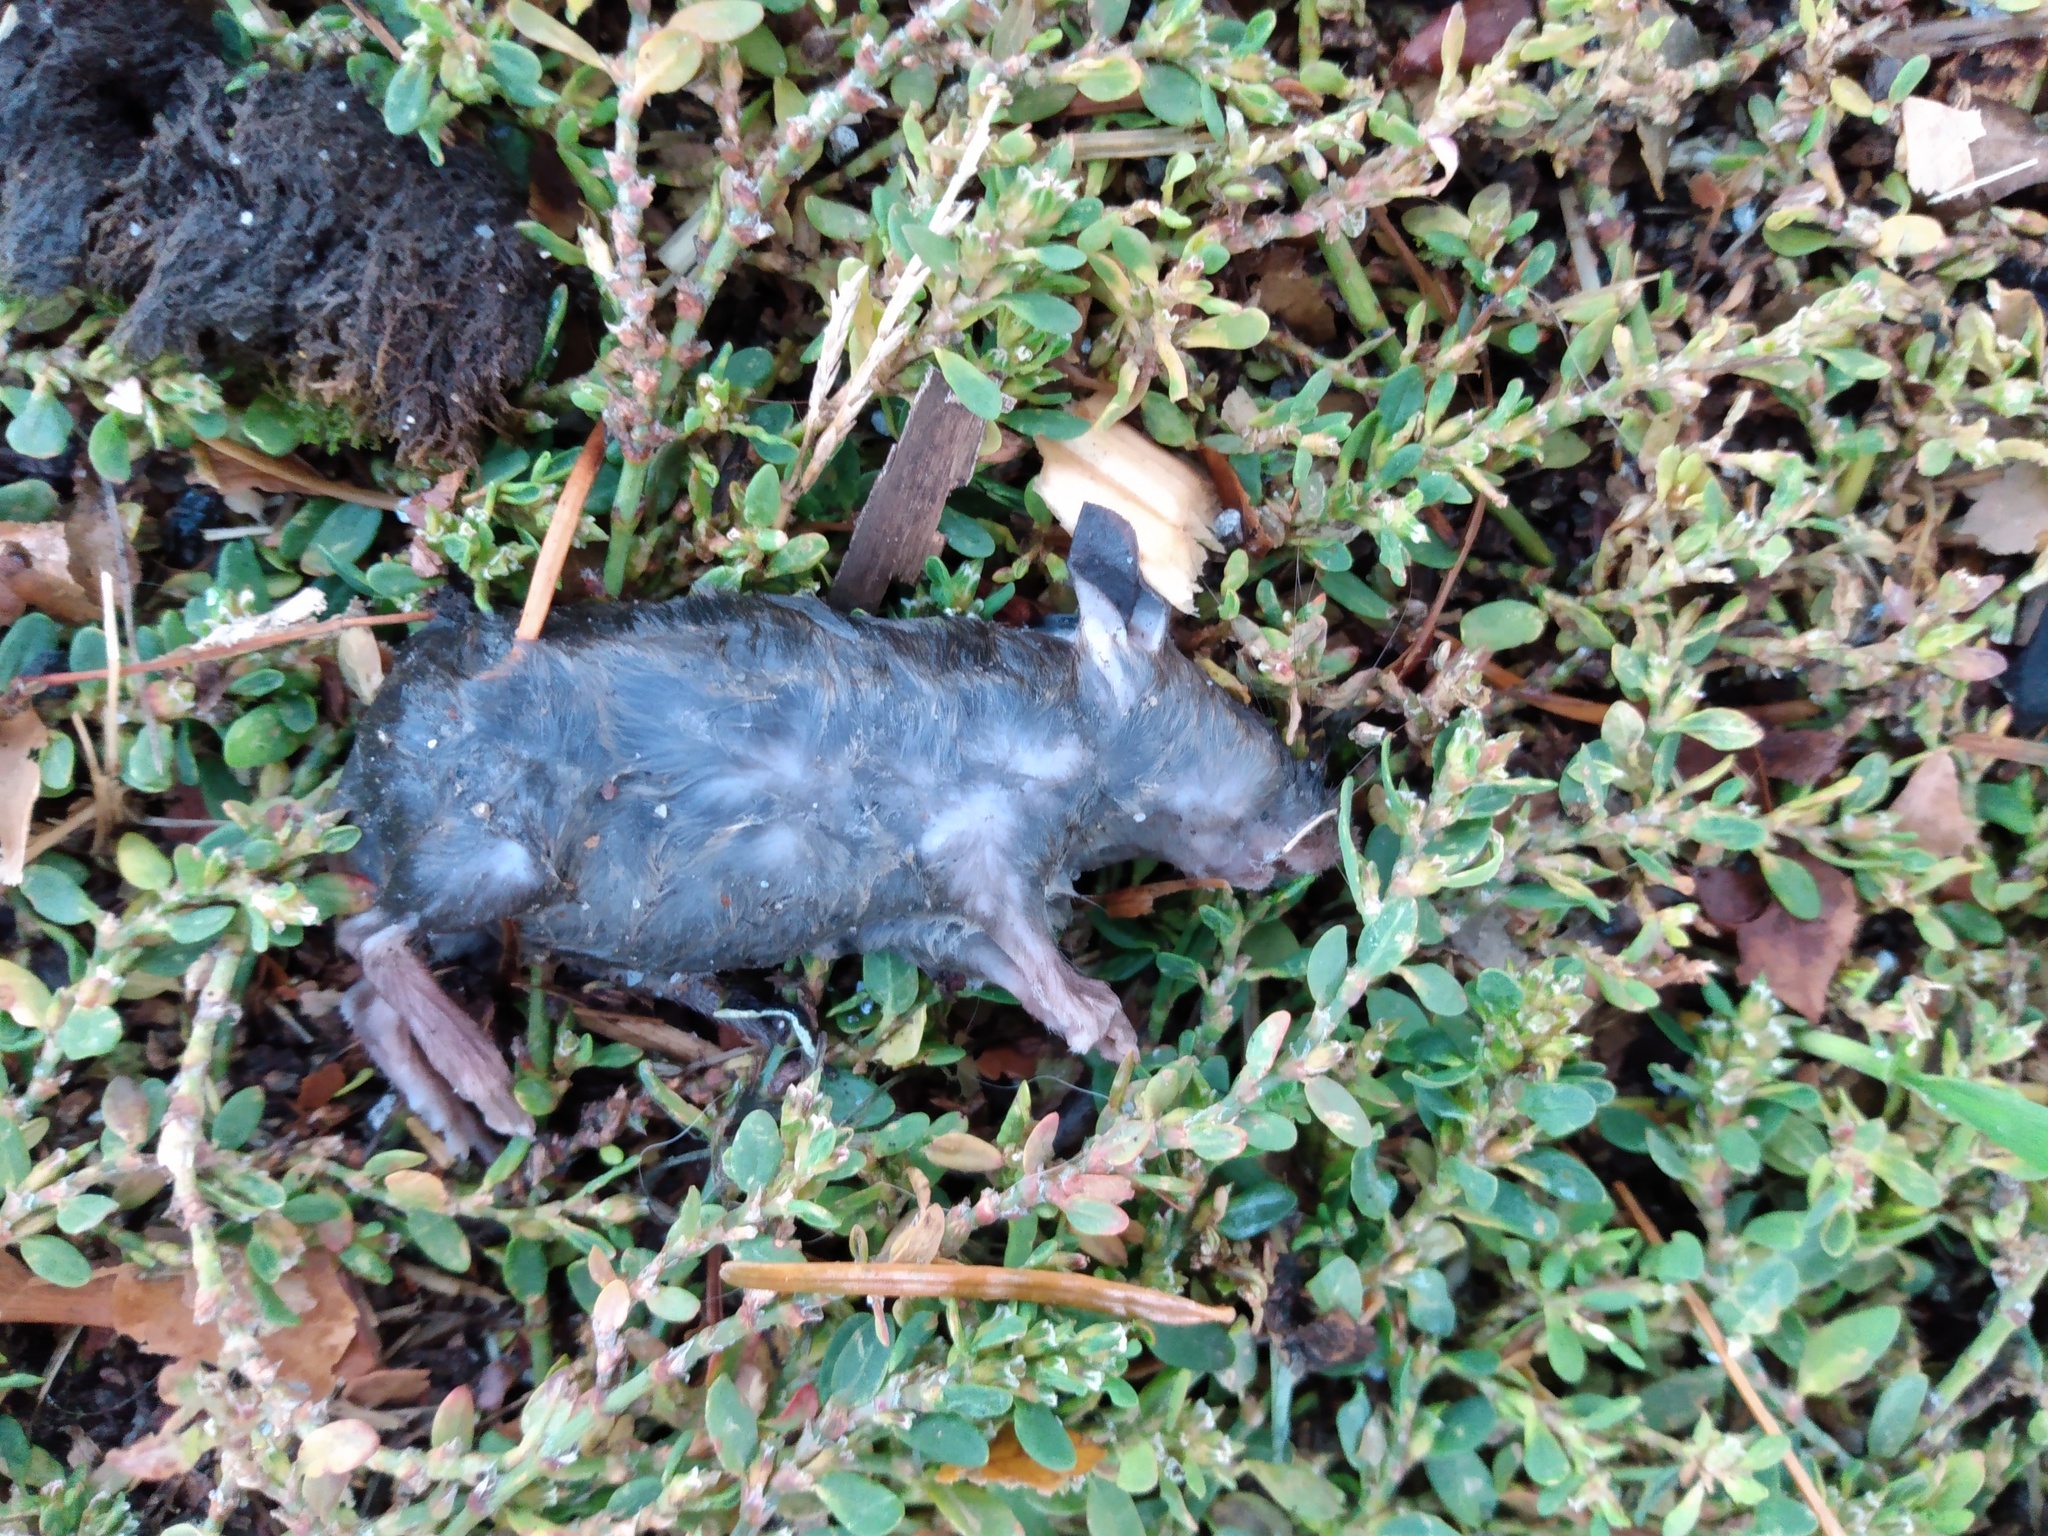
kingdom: Animalia
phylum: Chordata
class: Mammalia
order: Rodentia
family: Cricetidae
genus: Peromyscus
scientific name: Peromyscus maniculatus
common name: Deer mouse
